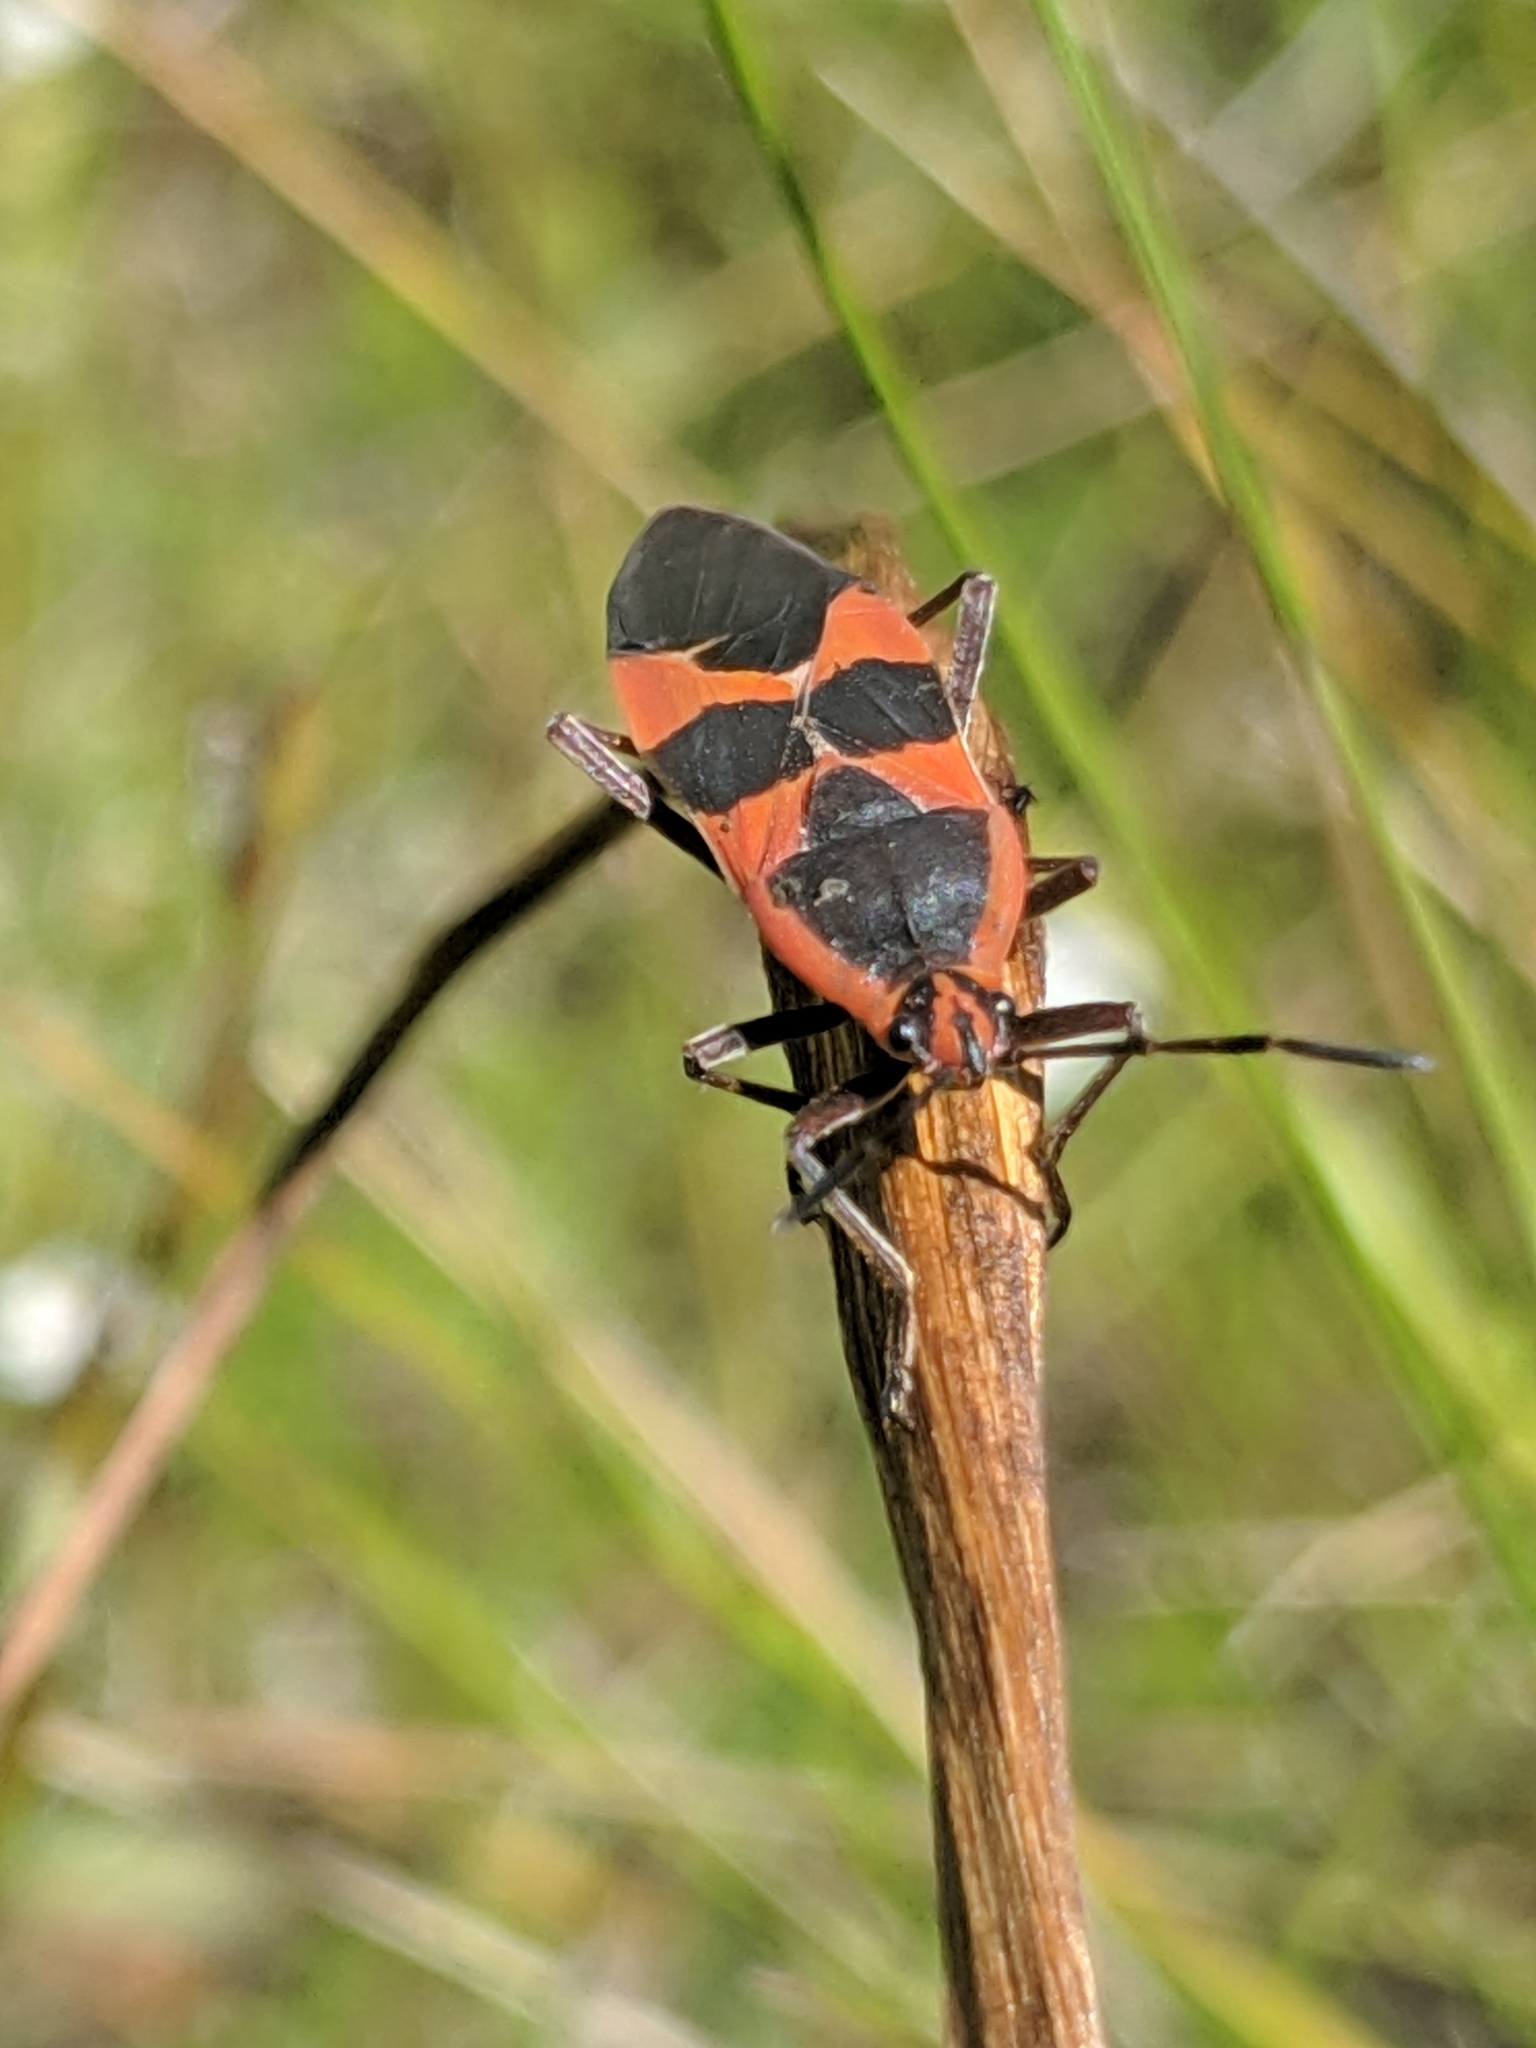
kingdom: Animalia
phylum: Arthropoda
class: Insecta
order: Hemiptera
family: Lygaeidae
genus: Oncopeltus
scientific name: Oncopeltus fasciatus
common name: Large milkweed bug
